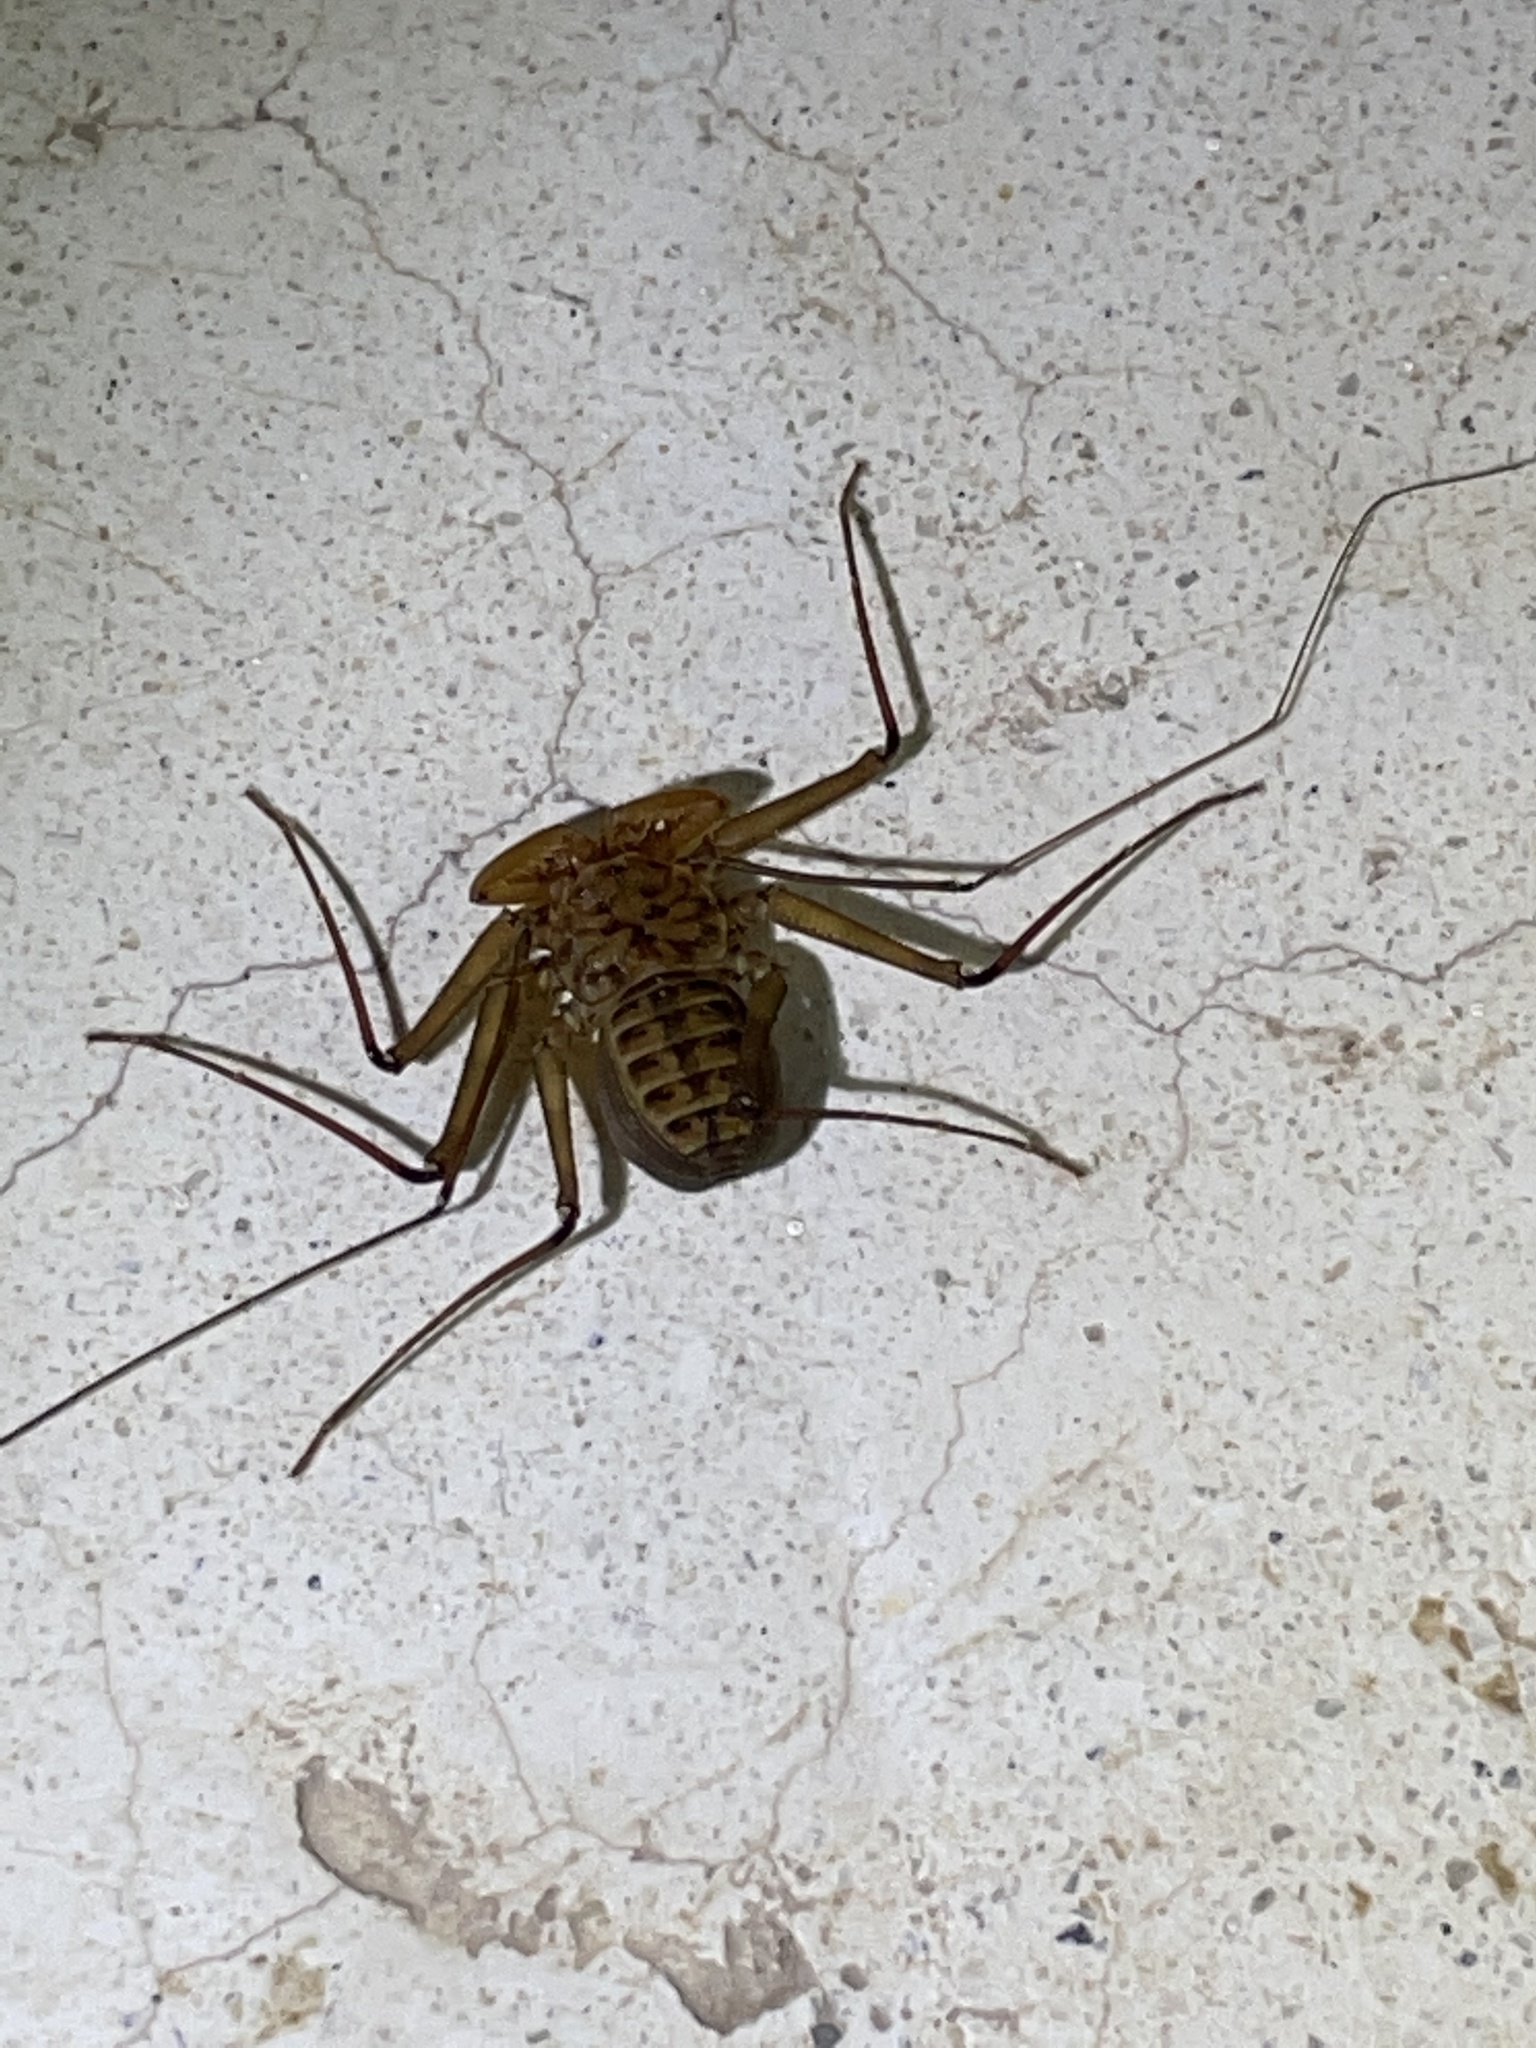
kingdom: Animalia
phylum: Arthropoda
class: Arachnida
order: Amblypygi
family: Phrynidae
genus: Phrynus
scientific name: Phrynus asperatipes
